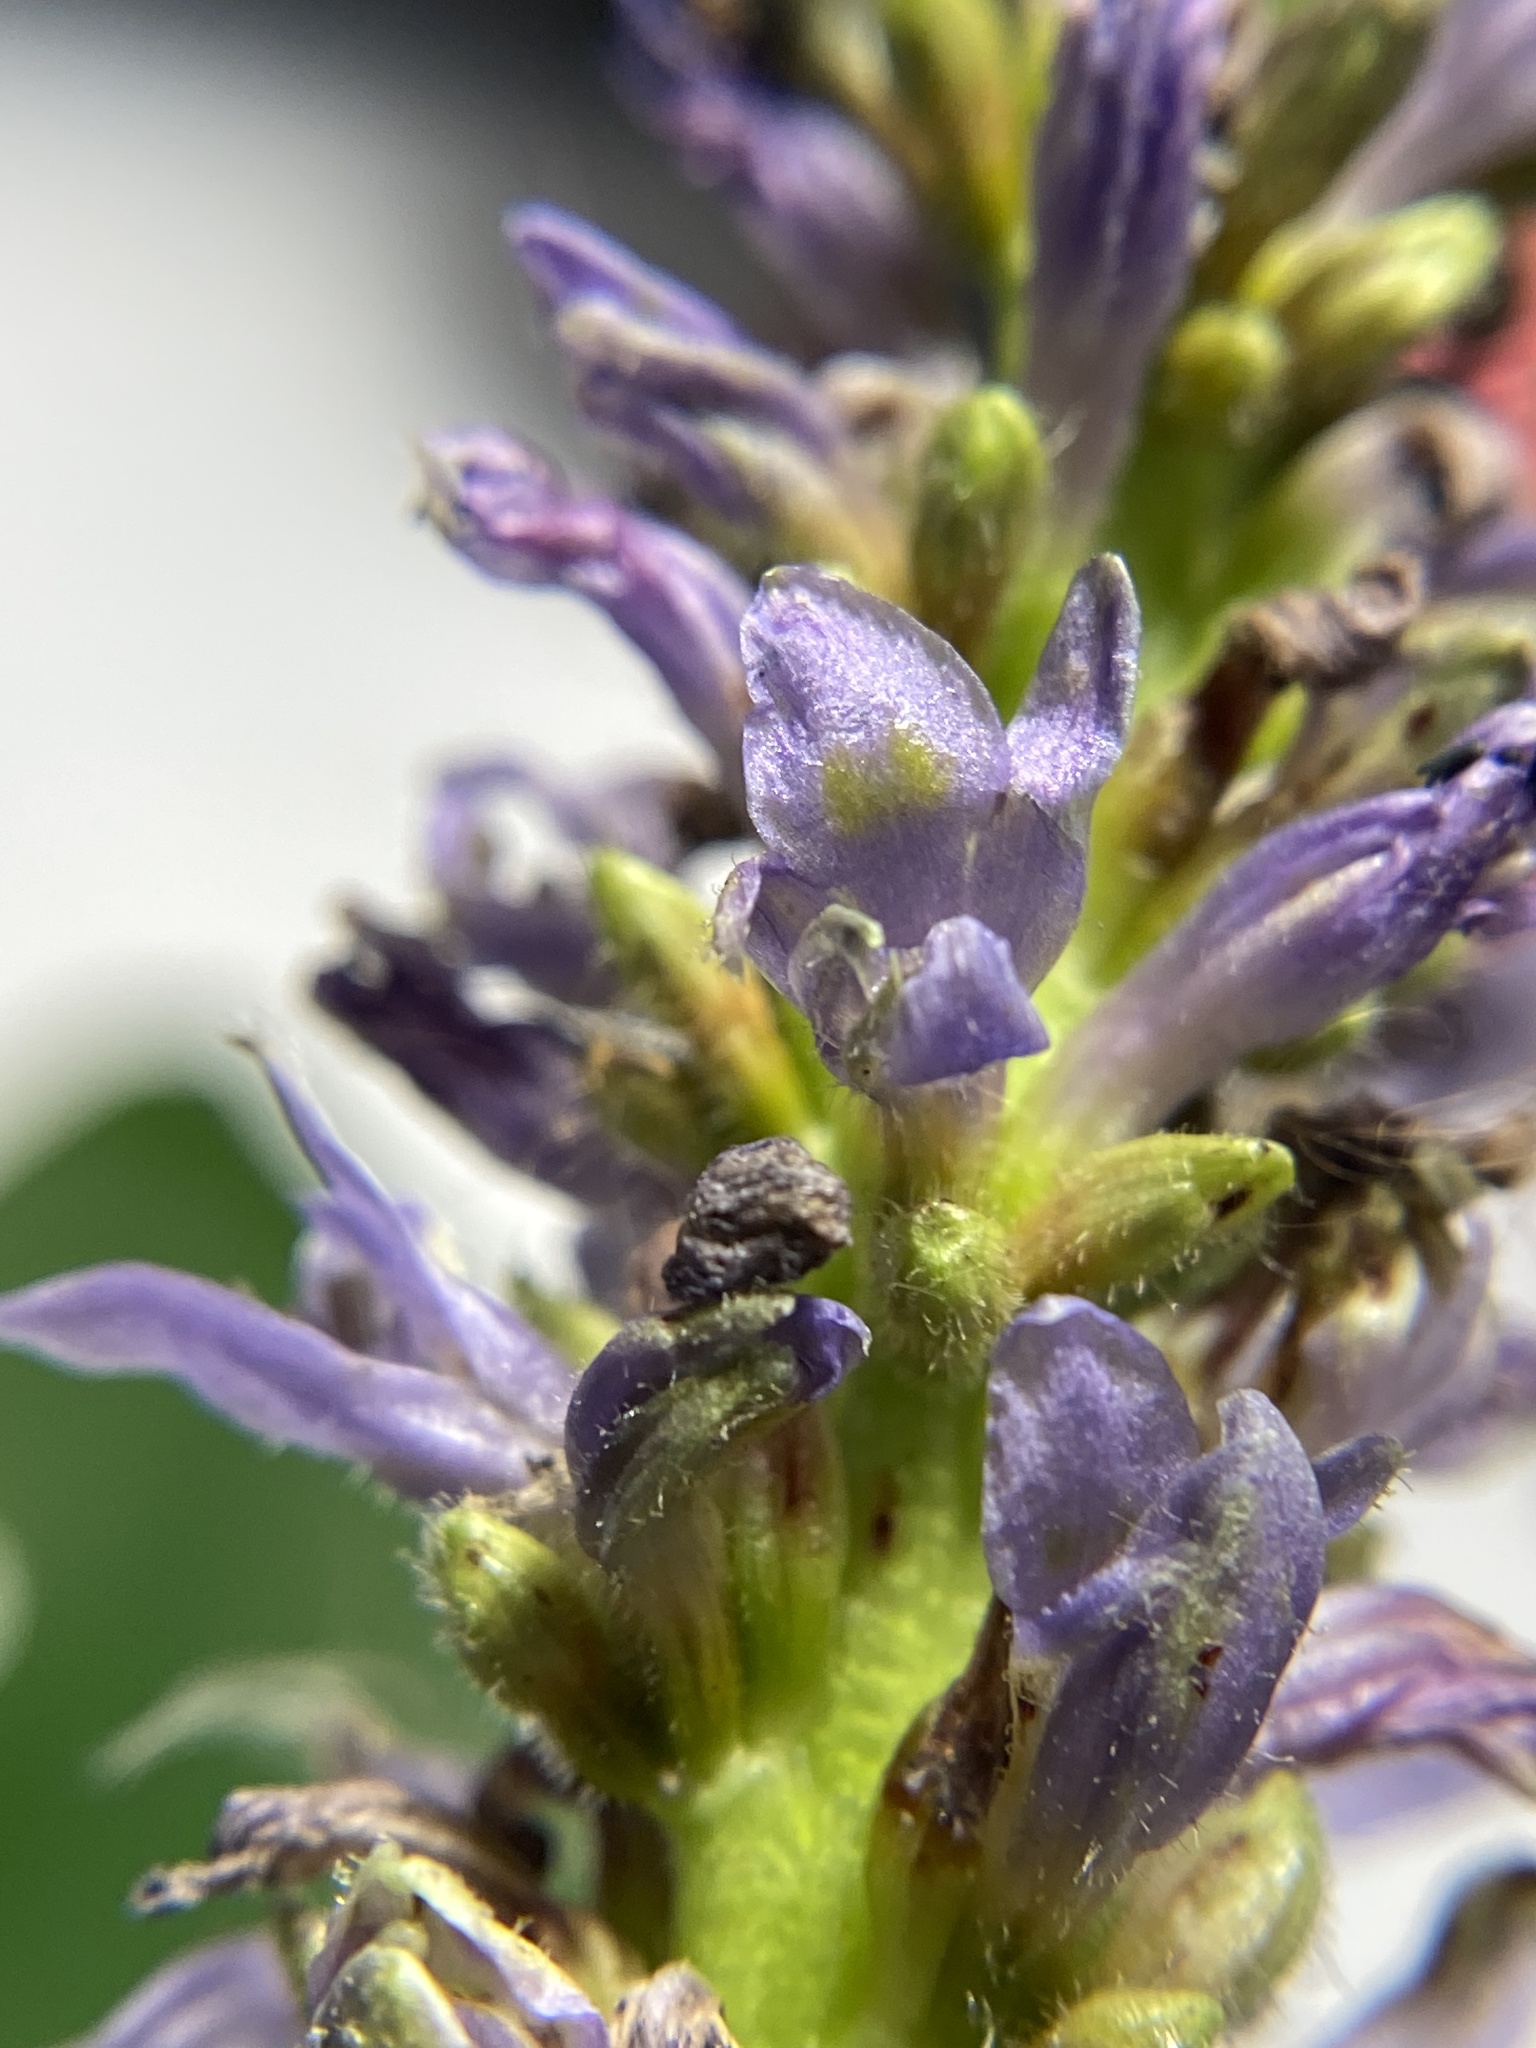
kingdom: Plantae
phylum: Tracheophyta
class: Liliopsida
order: Commelinales
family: Pontederiaceae
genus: Pontederia
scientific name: Pontederia cordata
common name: Pickerelweed
